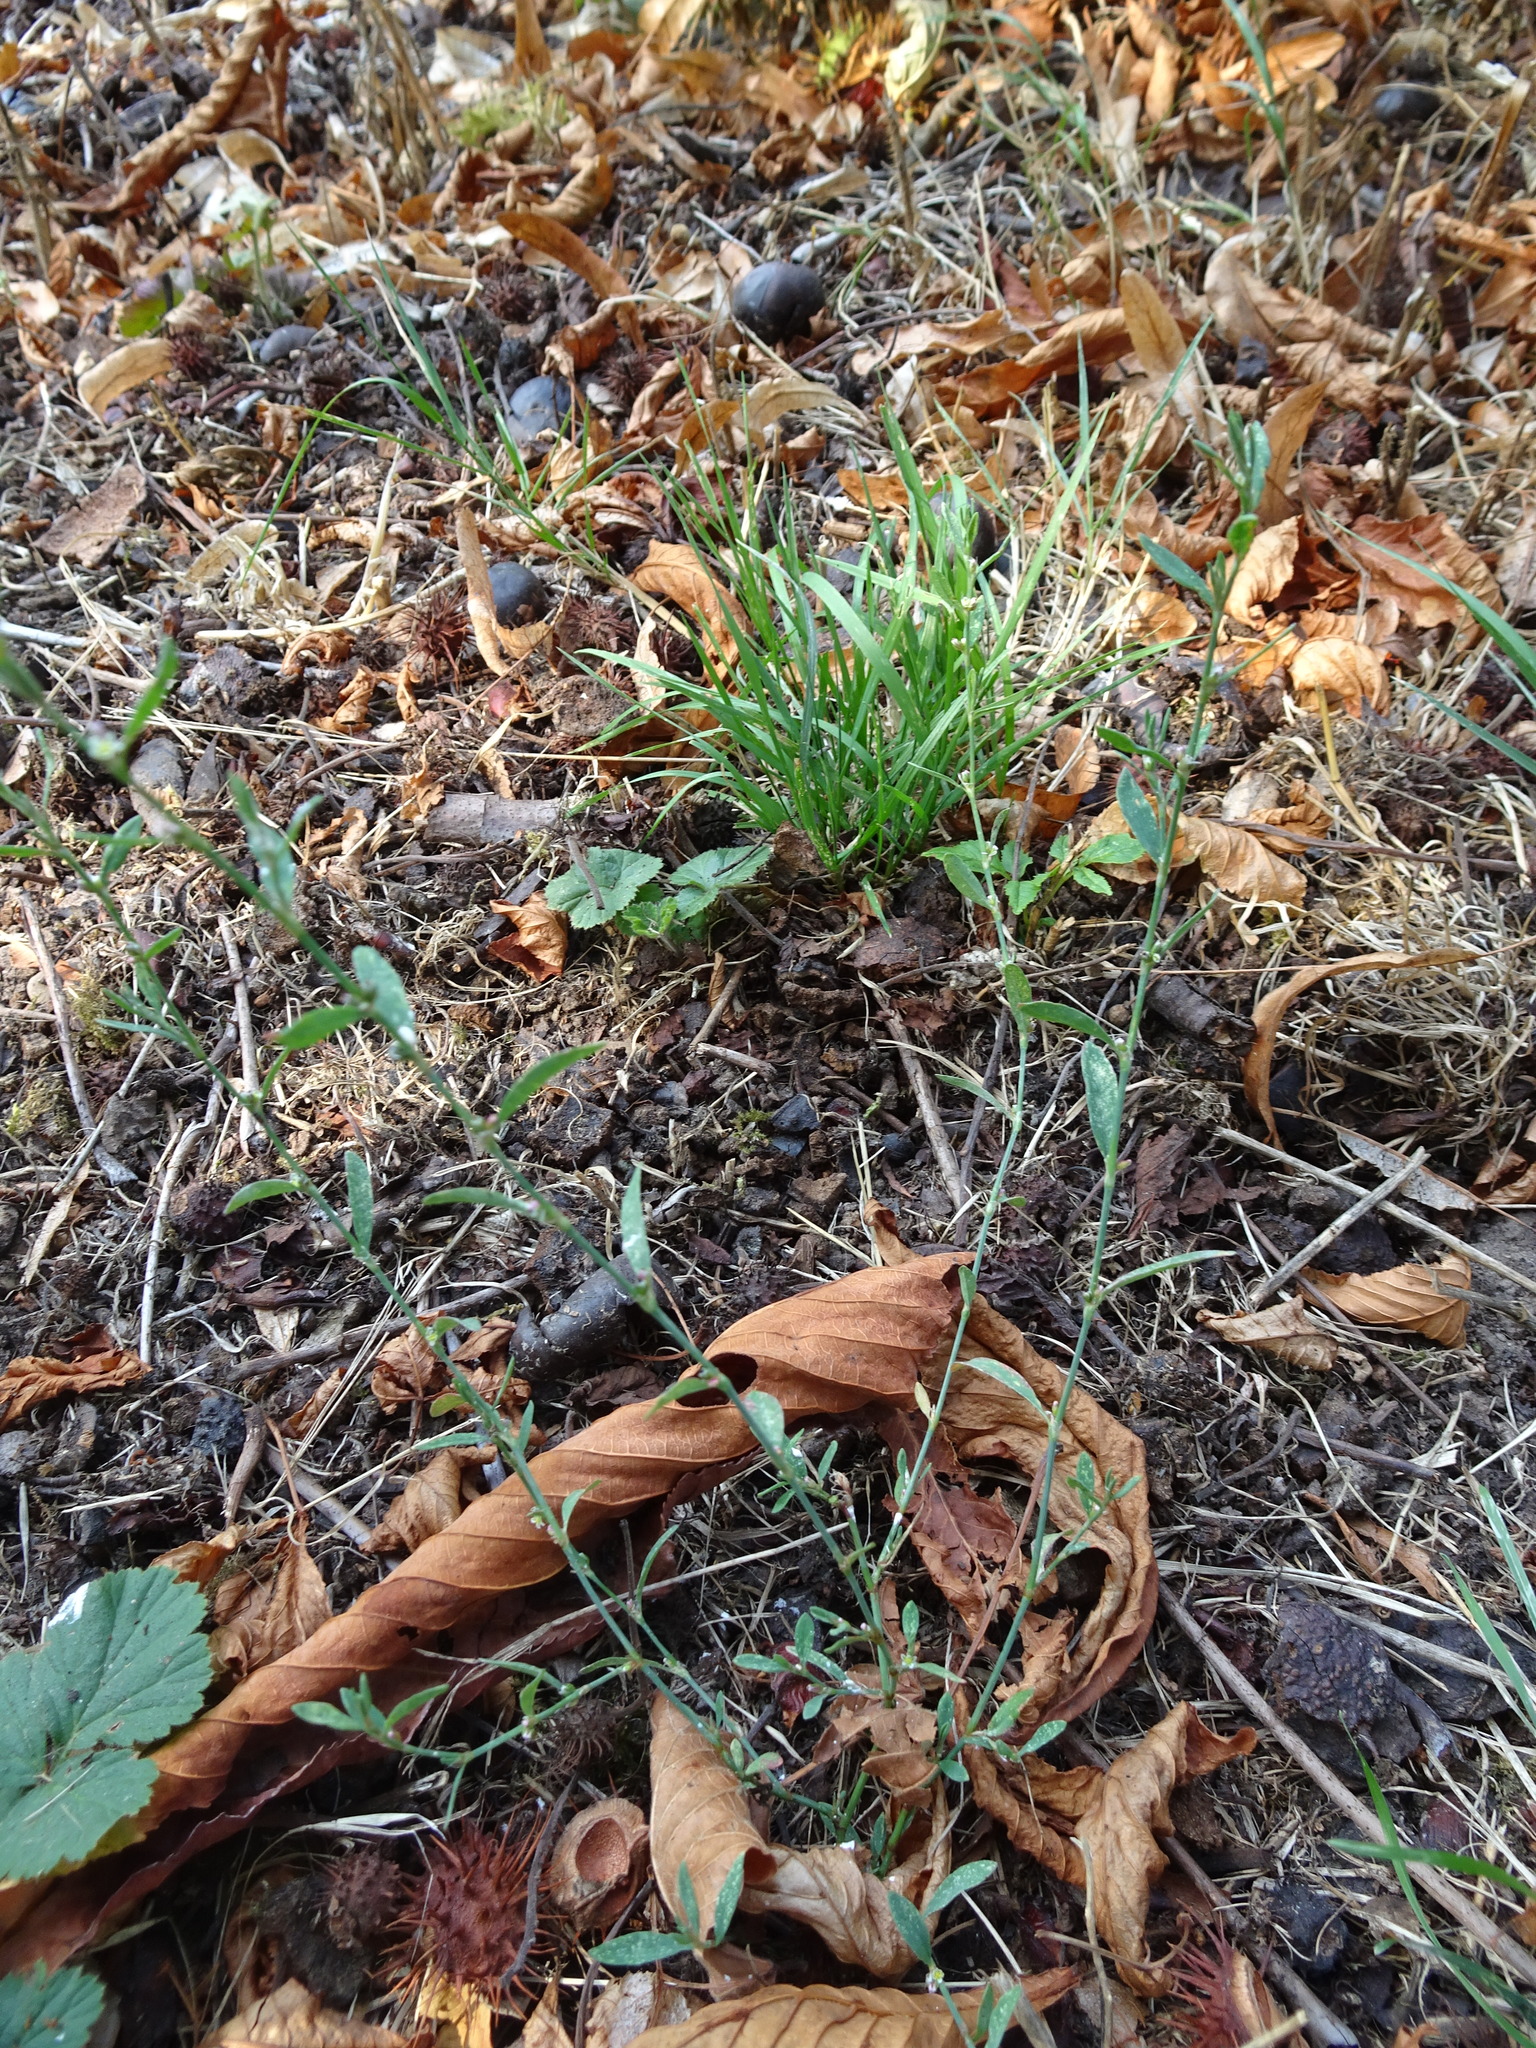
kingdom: Plantae
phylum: Tracheophyta
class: Magnoliopsida
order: Caryophyllales
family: Polygonaceae
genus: Polygonum
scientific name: Polygonum aviculare
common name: Prostrate knotweed
